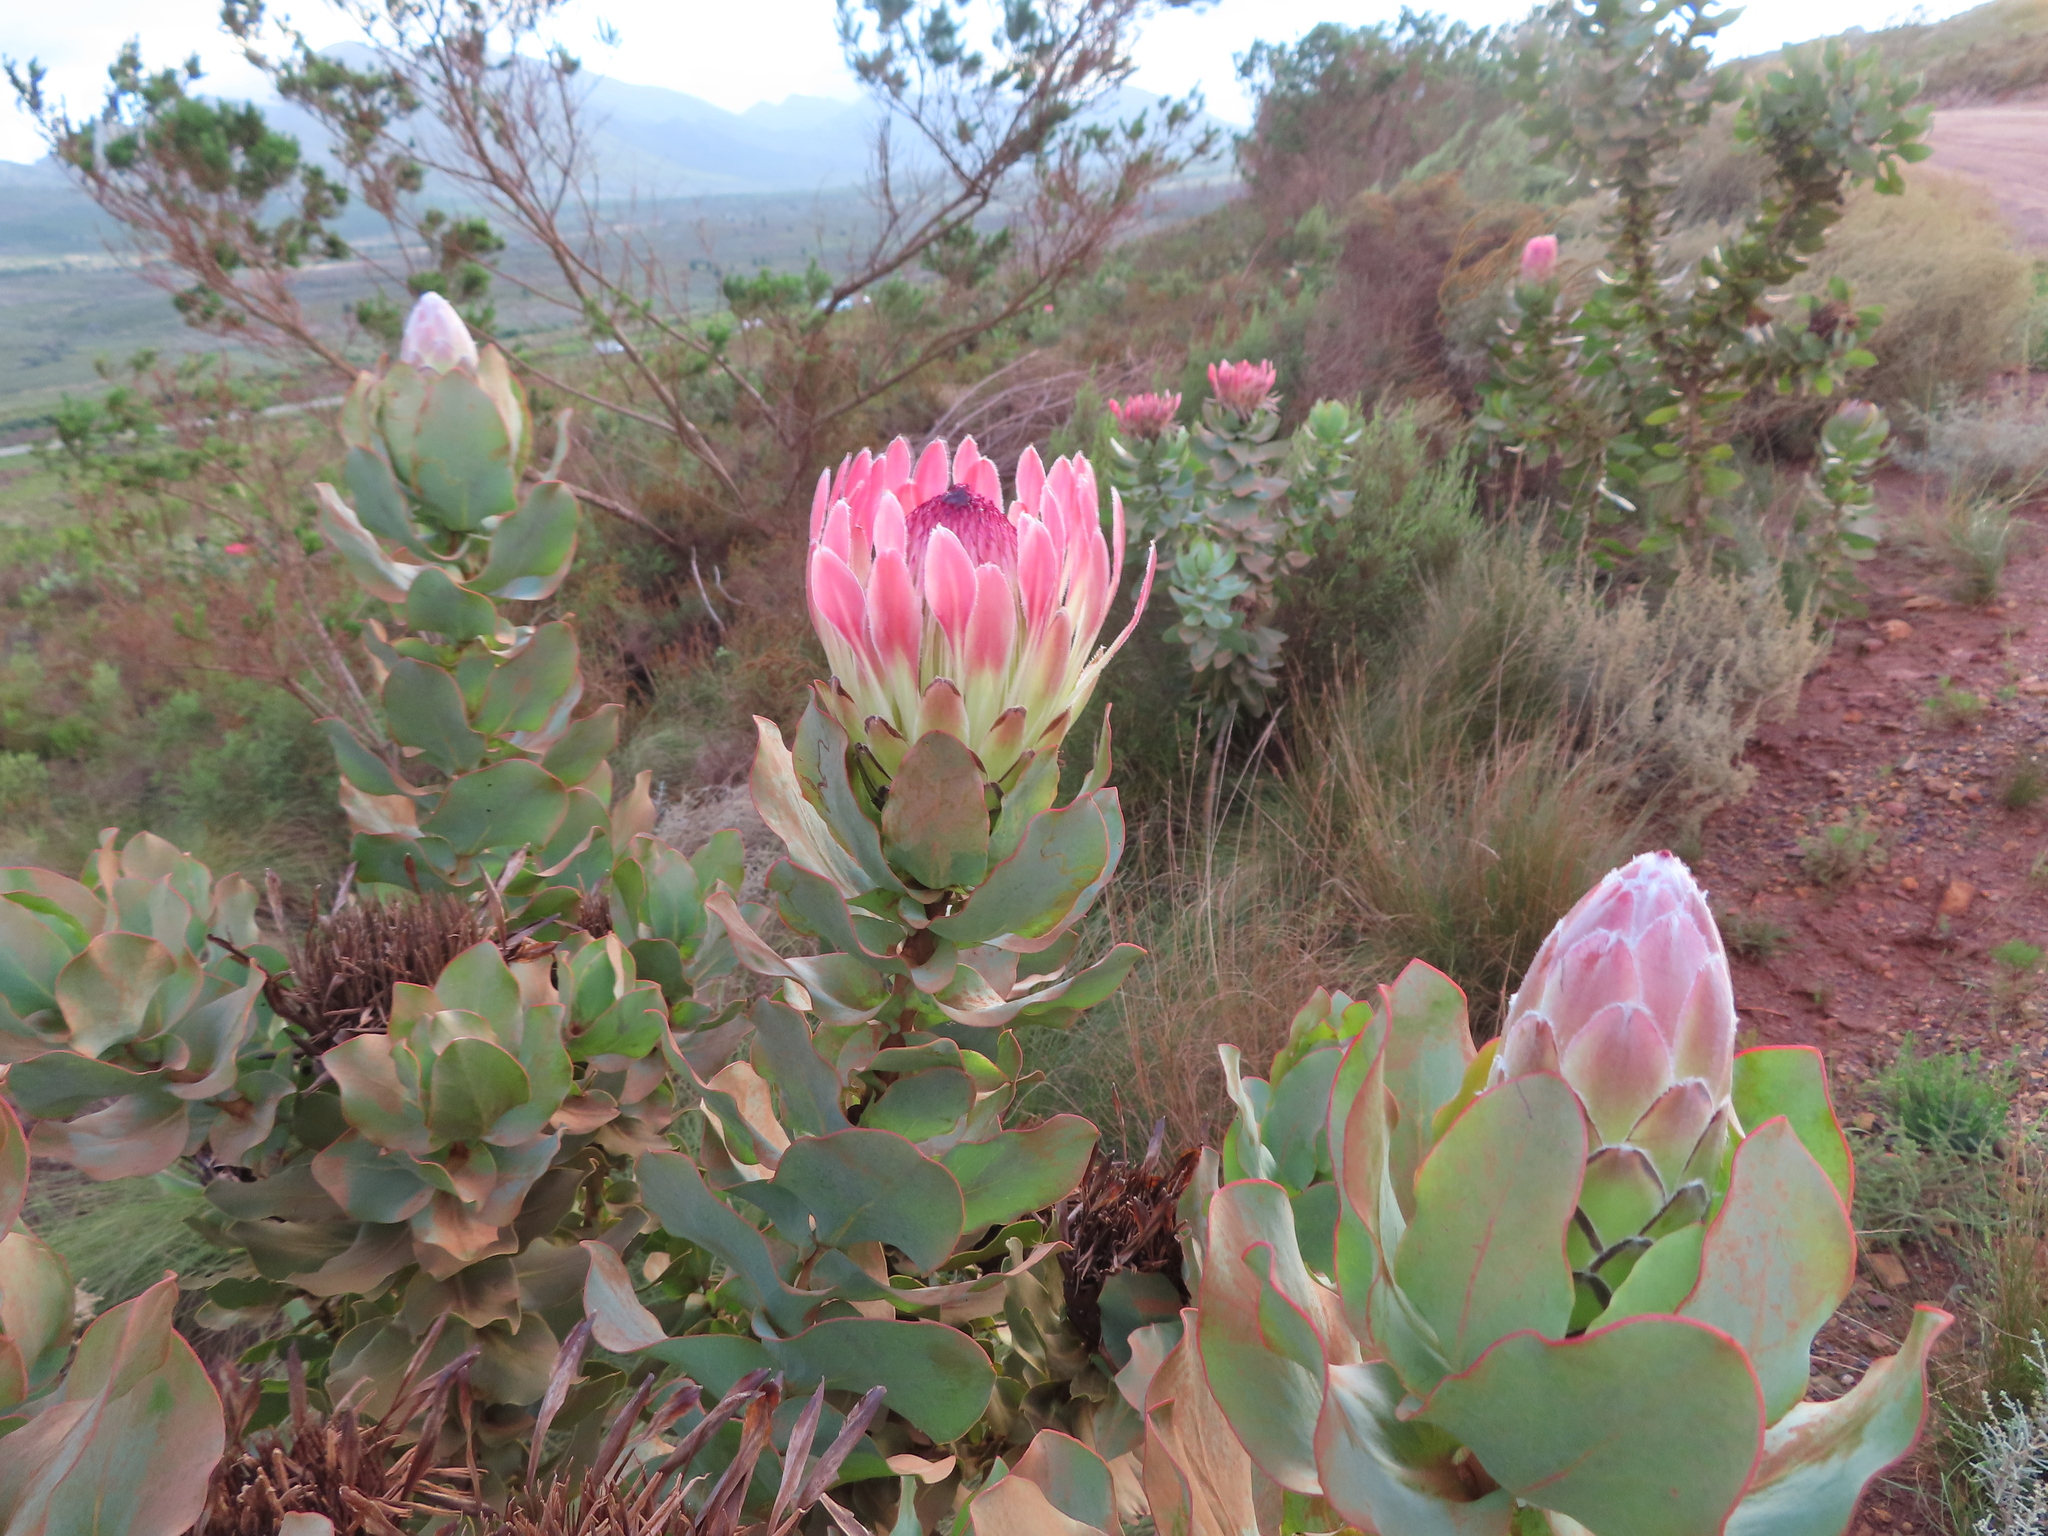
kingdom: Plantae
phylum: Tracheophyta
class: Magnoliopsida
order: Proteales
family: Proteaceae
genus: Protea
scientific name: Protea eximia
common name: Broad-leaved sugarbush
